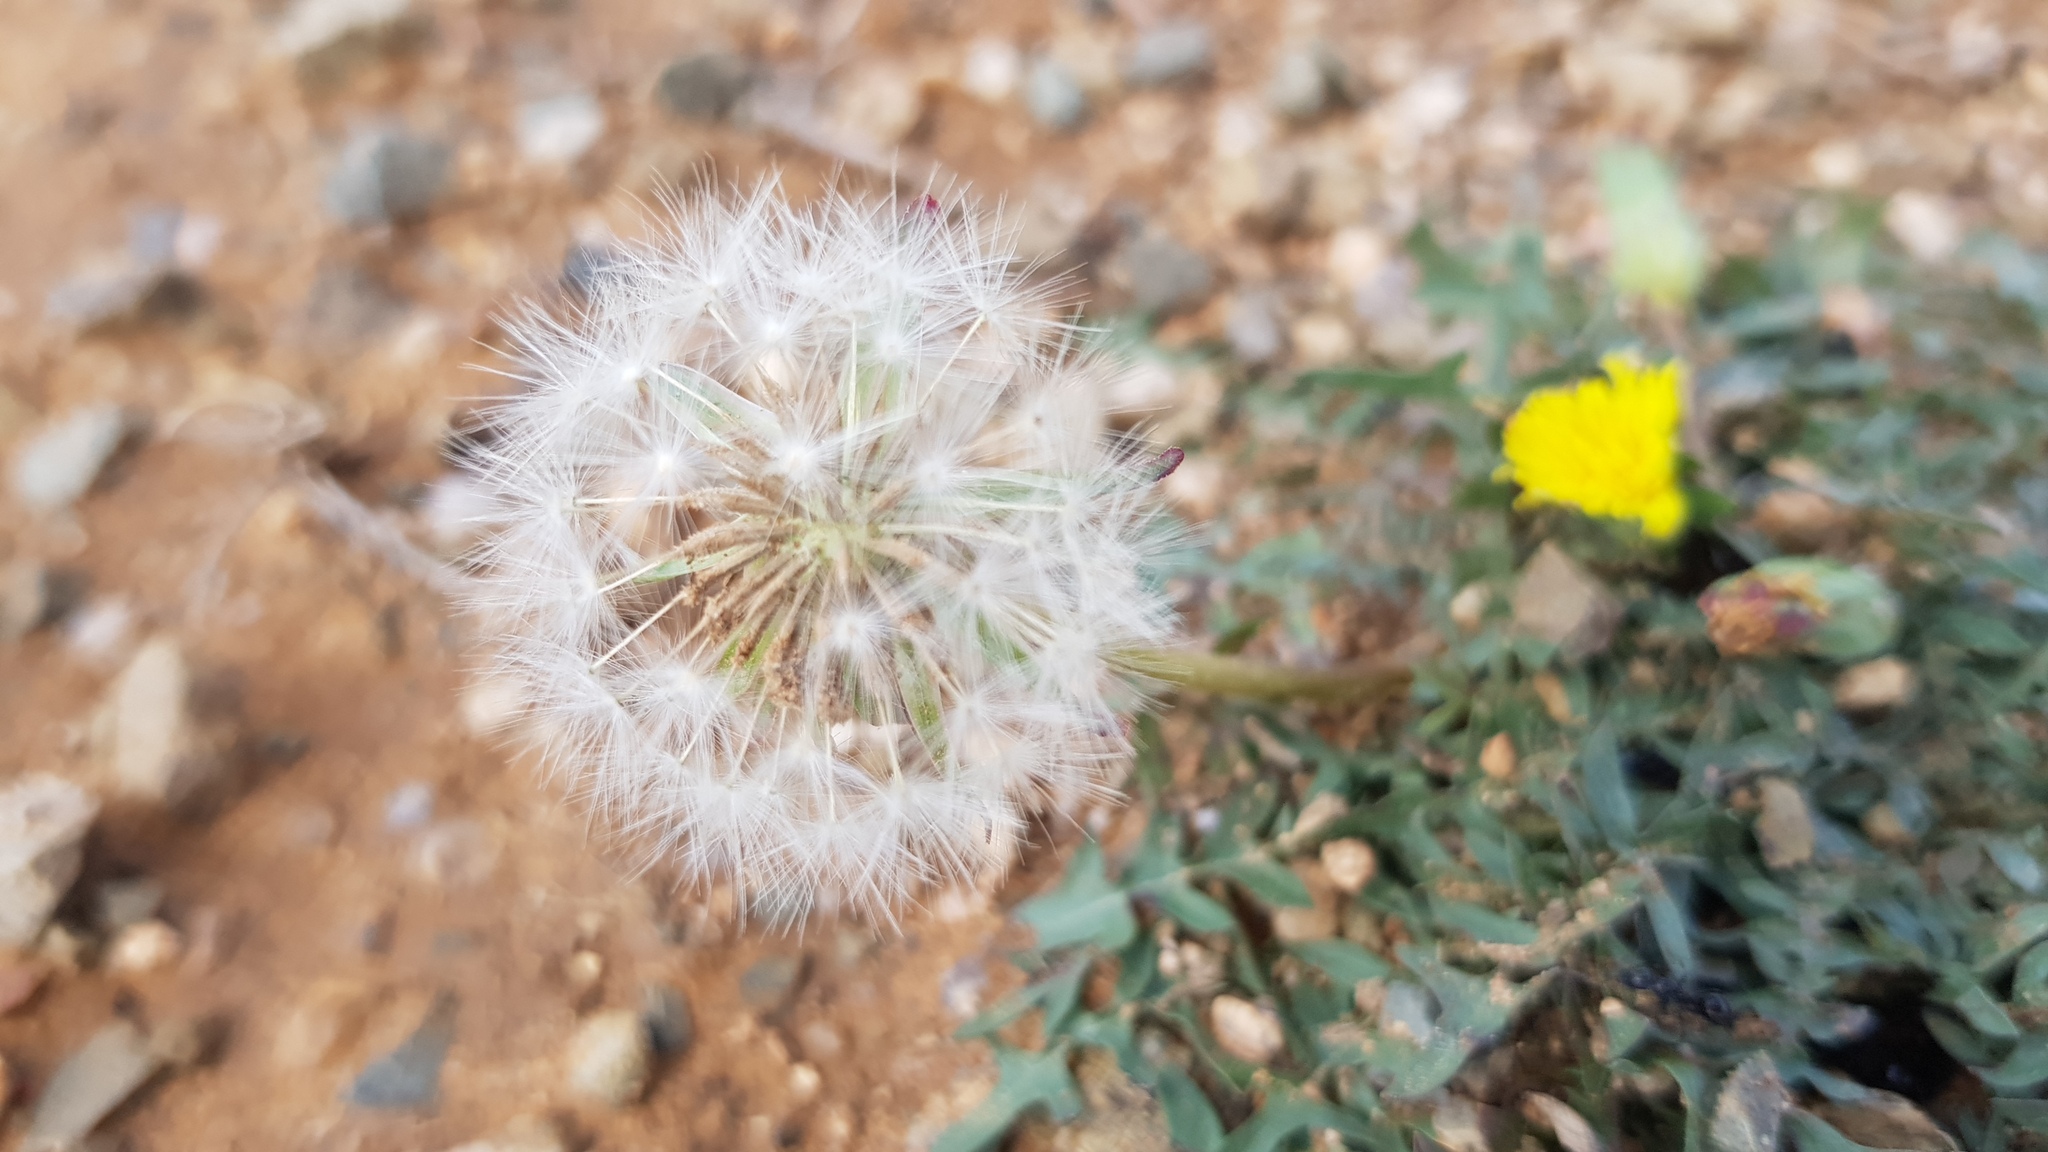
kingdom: Plantae
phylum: Tracheophyta
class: Magnoliopsida
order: Asterales
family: Asteraceae
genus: Taraxacum
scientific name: Taraxacum ceratophorum
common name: Horn-bearing dandelion
